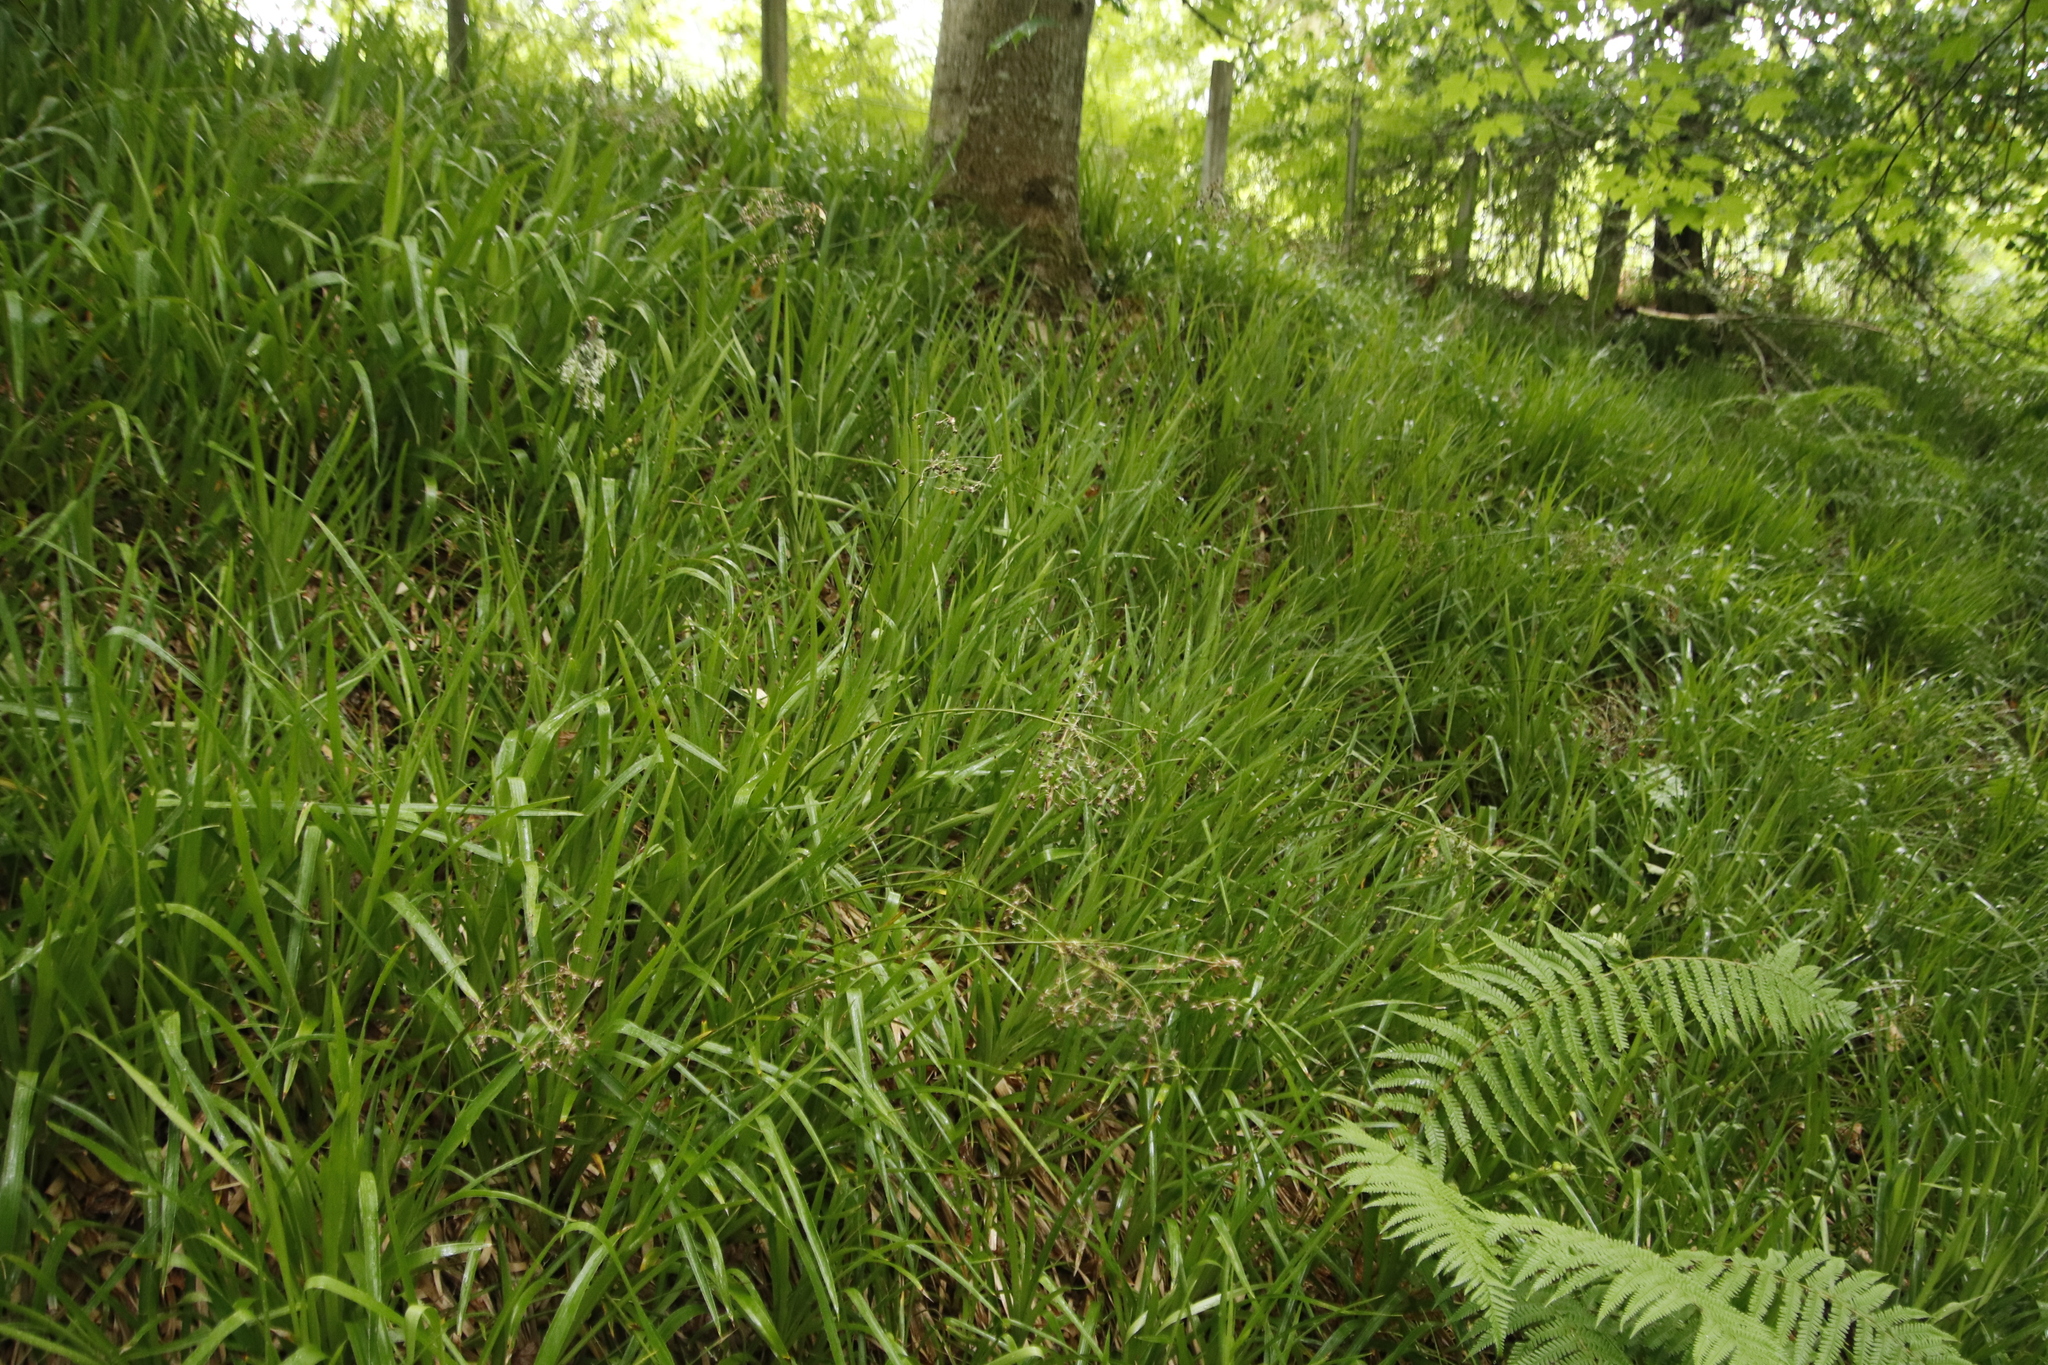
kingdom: Plantae
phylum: Tracheophyta
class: Liliopsida
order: Poales
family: Juncaceae
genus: Luzula
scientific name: Luzula sylvatica
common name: Great wood-rush
